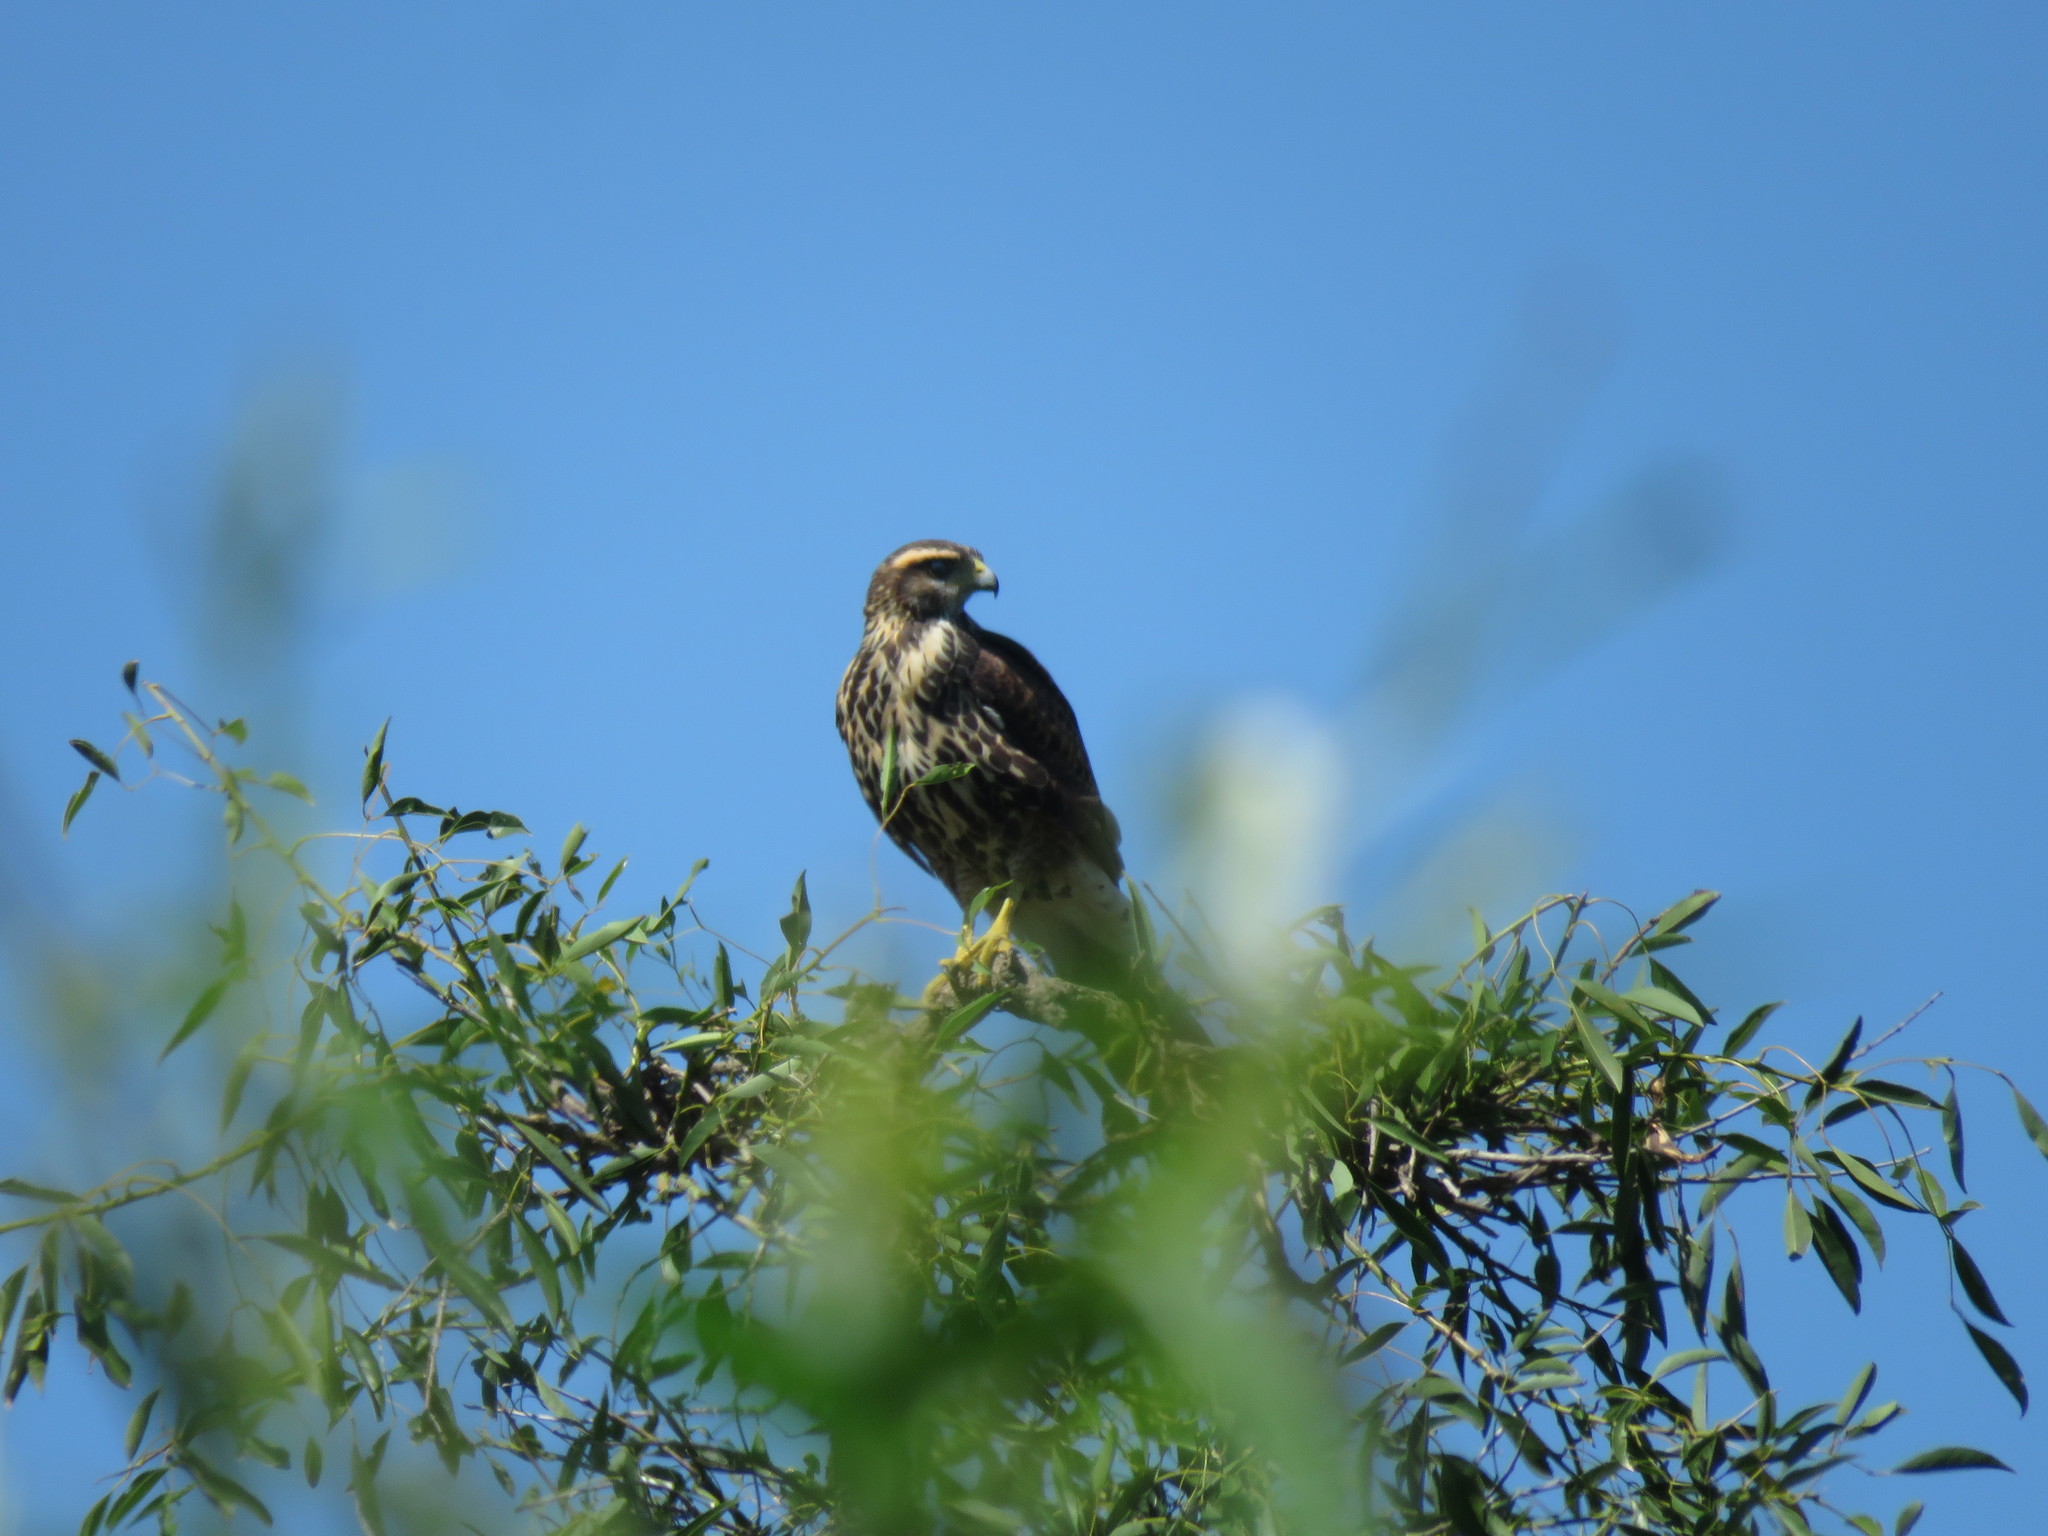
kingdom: Animalia
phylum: Chordata
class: Aves
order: Accipitriformes
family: Accipitridae
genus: Parabuteo
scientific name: Parabuteo unicinctus
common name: Harris's hawk
